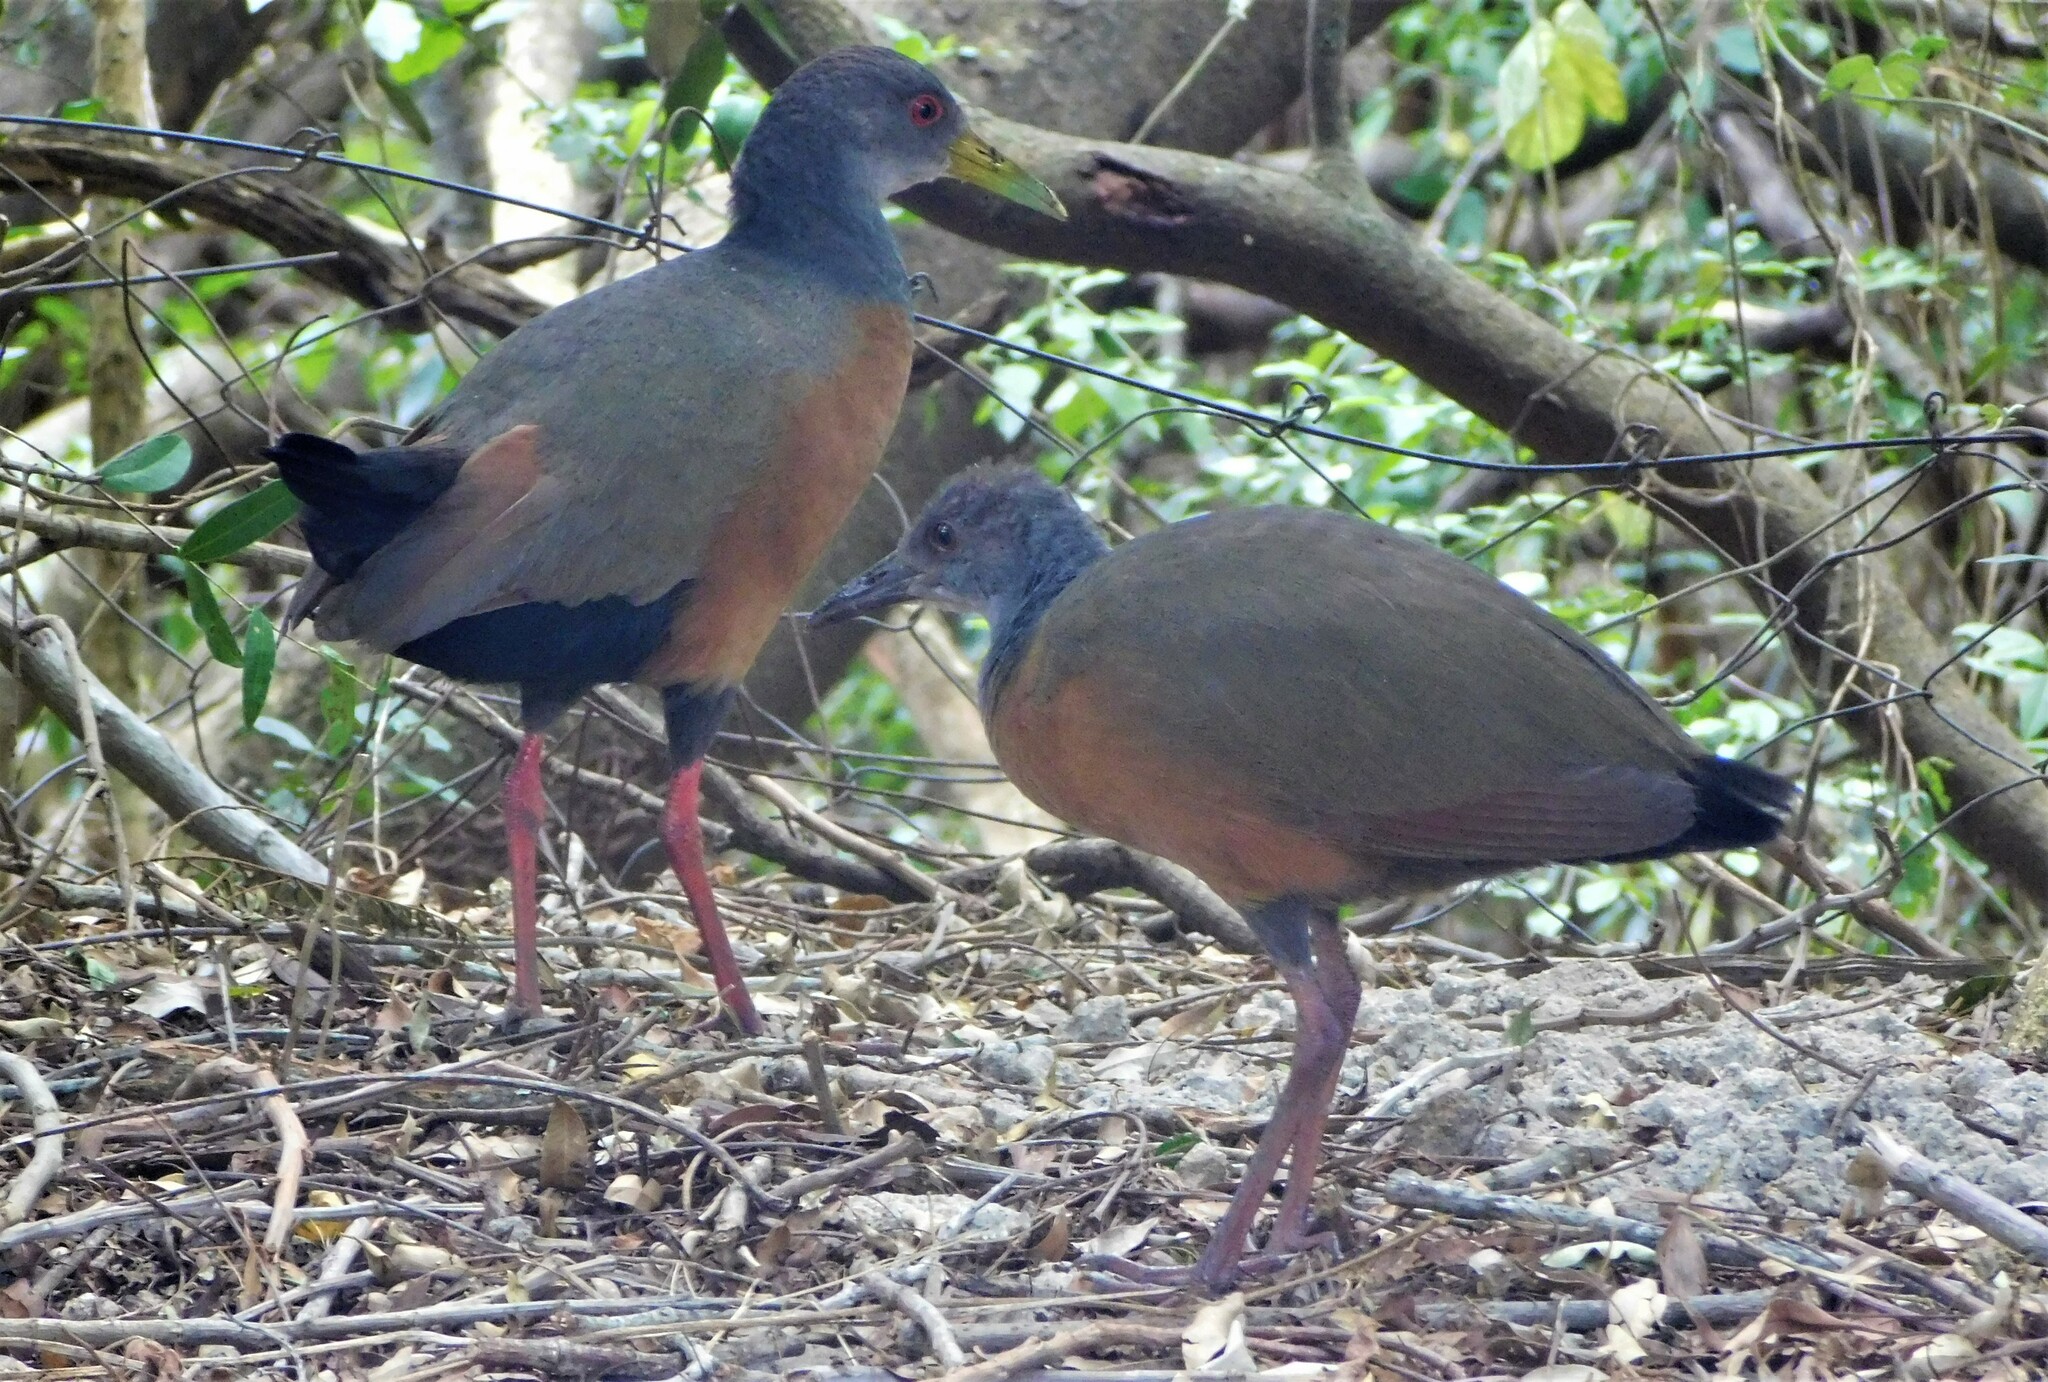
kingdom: Animalia
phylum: Chordata
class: Aves
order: Gruiformes
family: Rallidae
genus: Aramides
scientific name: Aramides cajanea
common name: Gray-necked wood-rail
